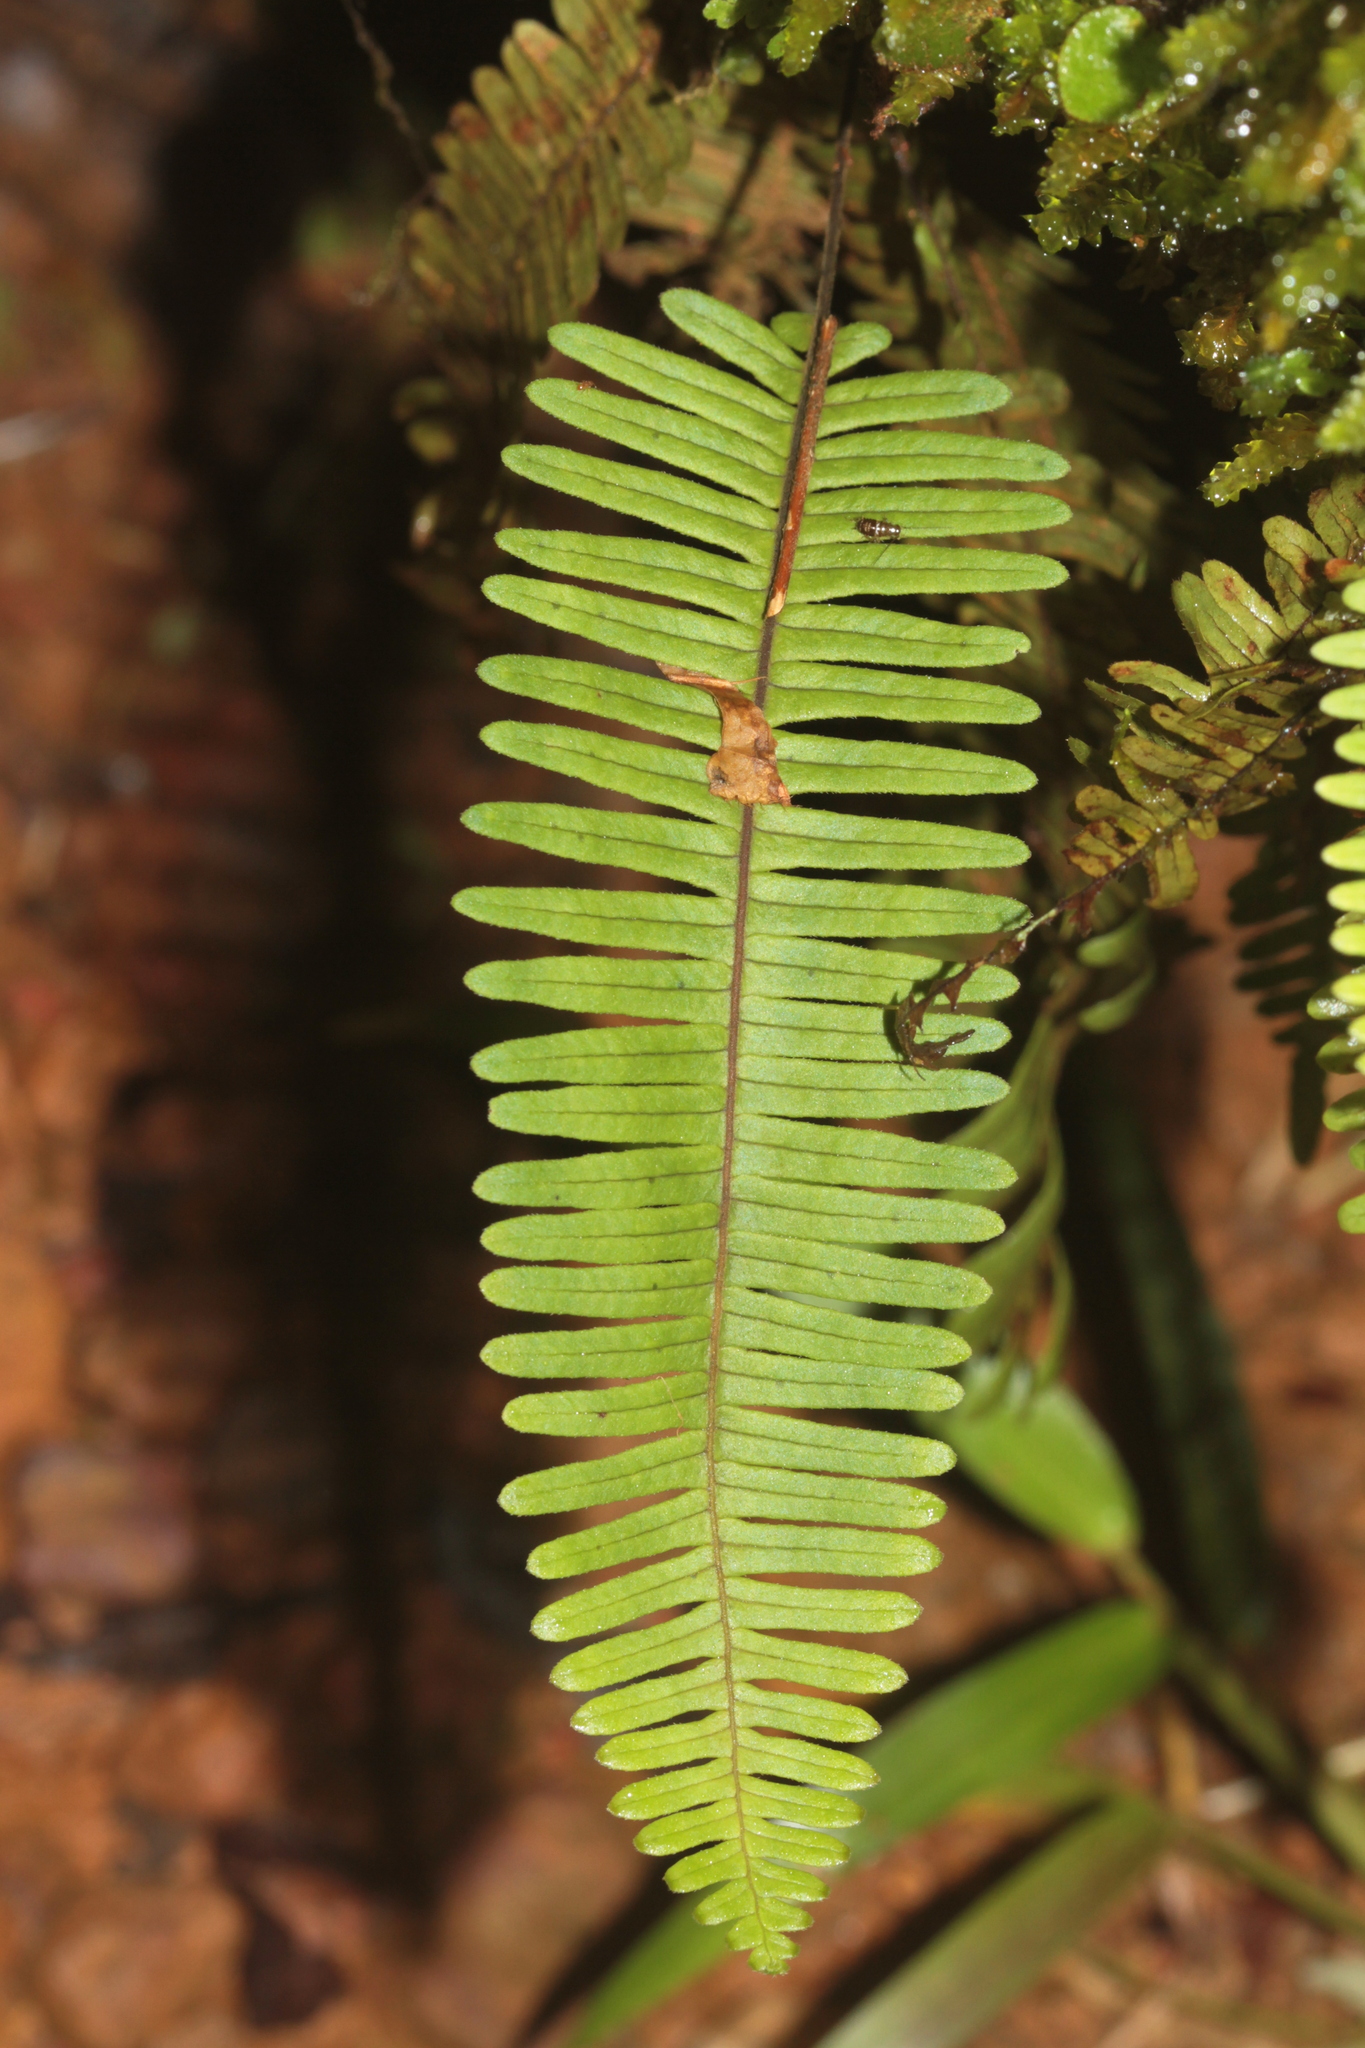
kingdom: Plantae
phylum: Tracheophyta
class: Polypodiopsida
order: Polypodiales
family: Polypodiaceae
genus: Pecluma
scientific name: Pecluma
